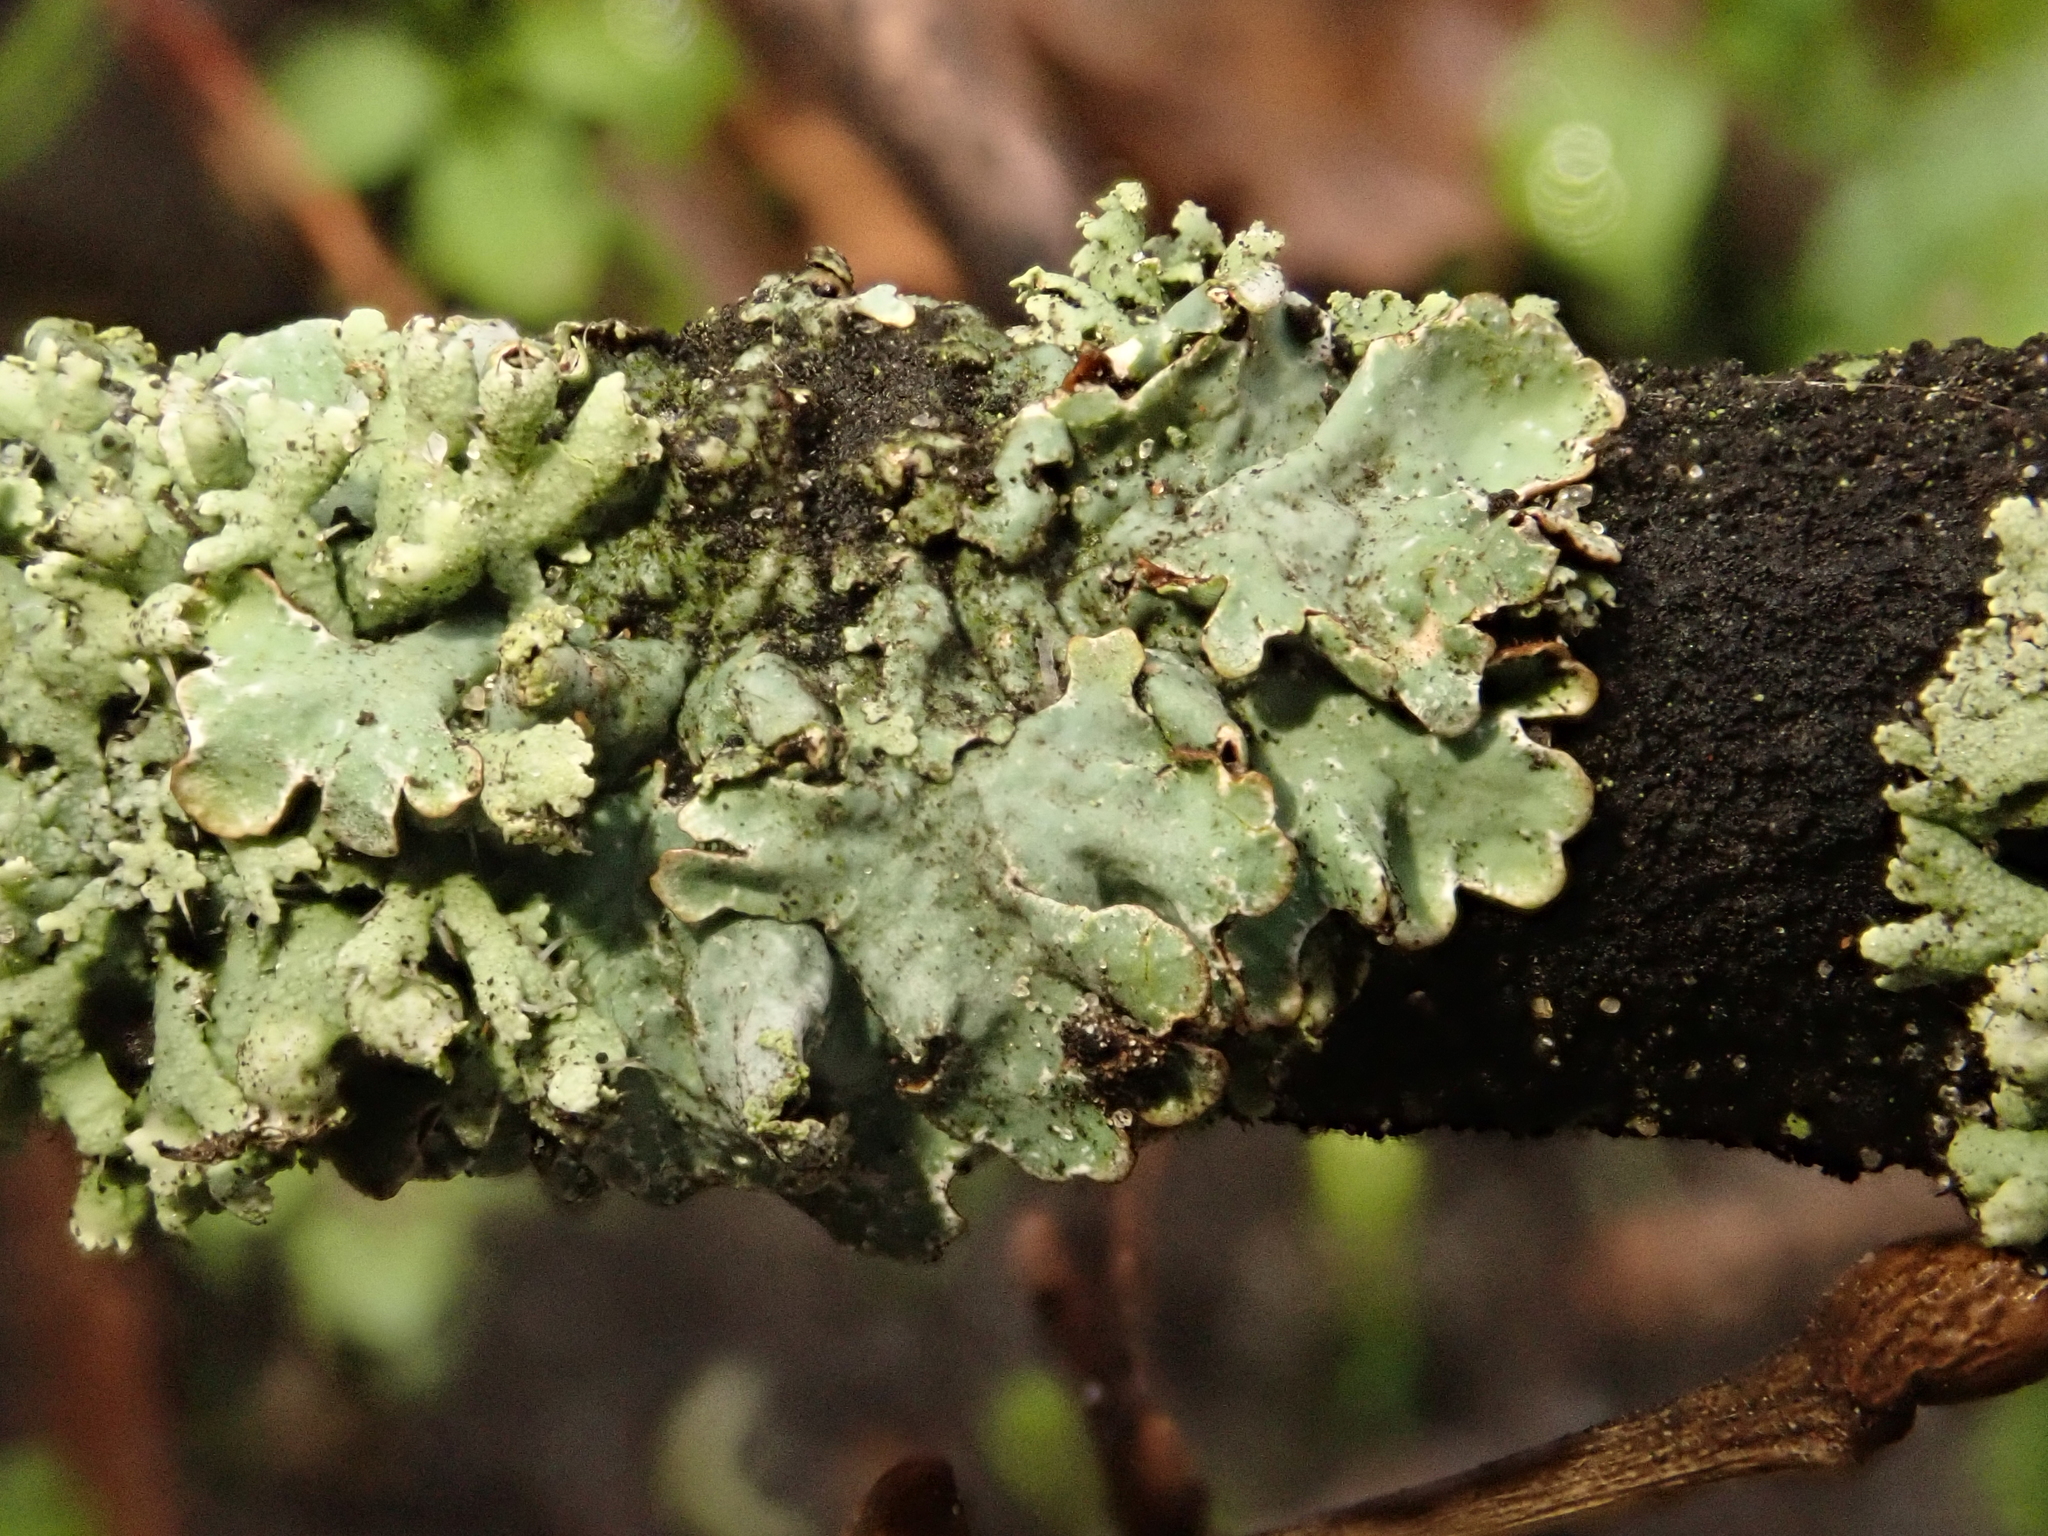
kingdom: Fungi
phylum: Ascomycota
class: Lecanoromycetes
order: Lecanorales
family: Parmeliaceae
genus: Parmelia
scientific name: Parmelia sulcata
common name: Netted shield lichen
